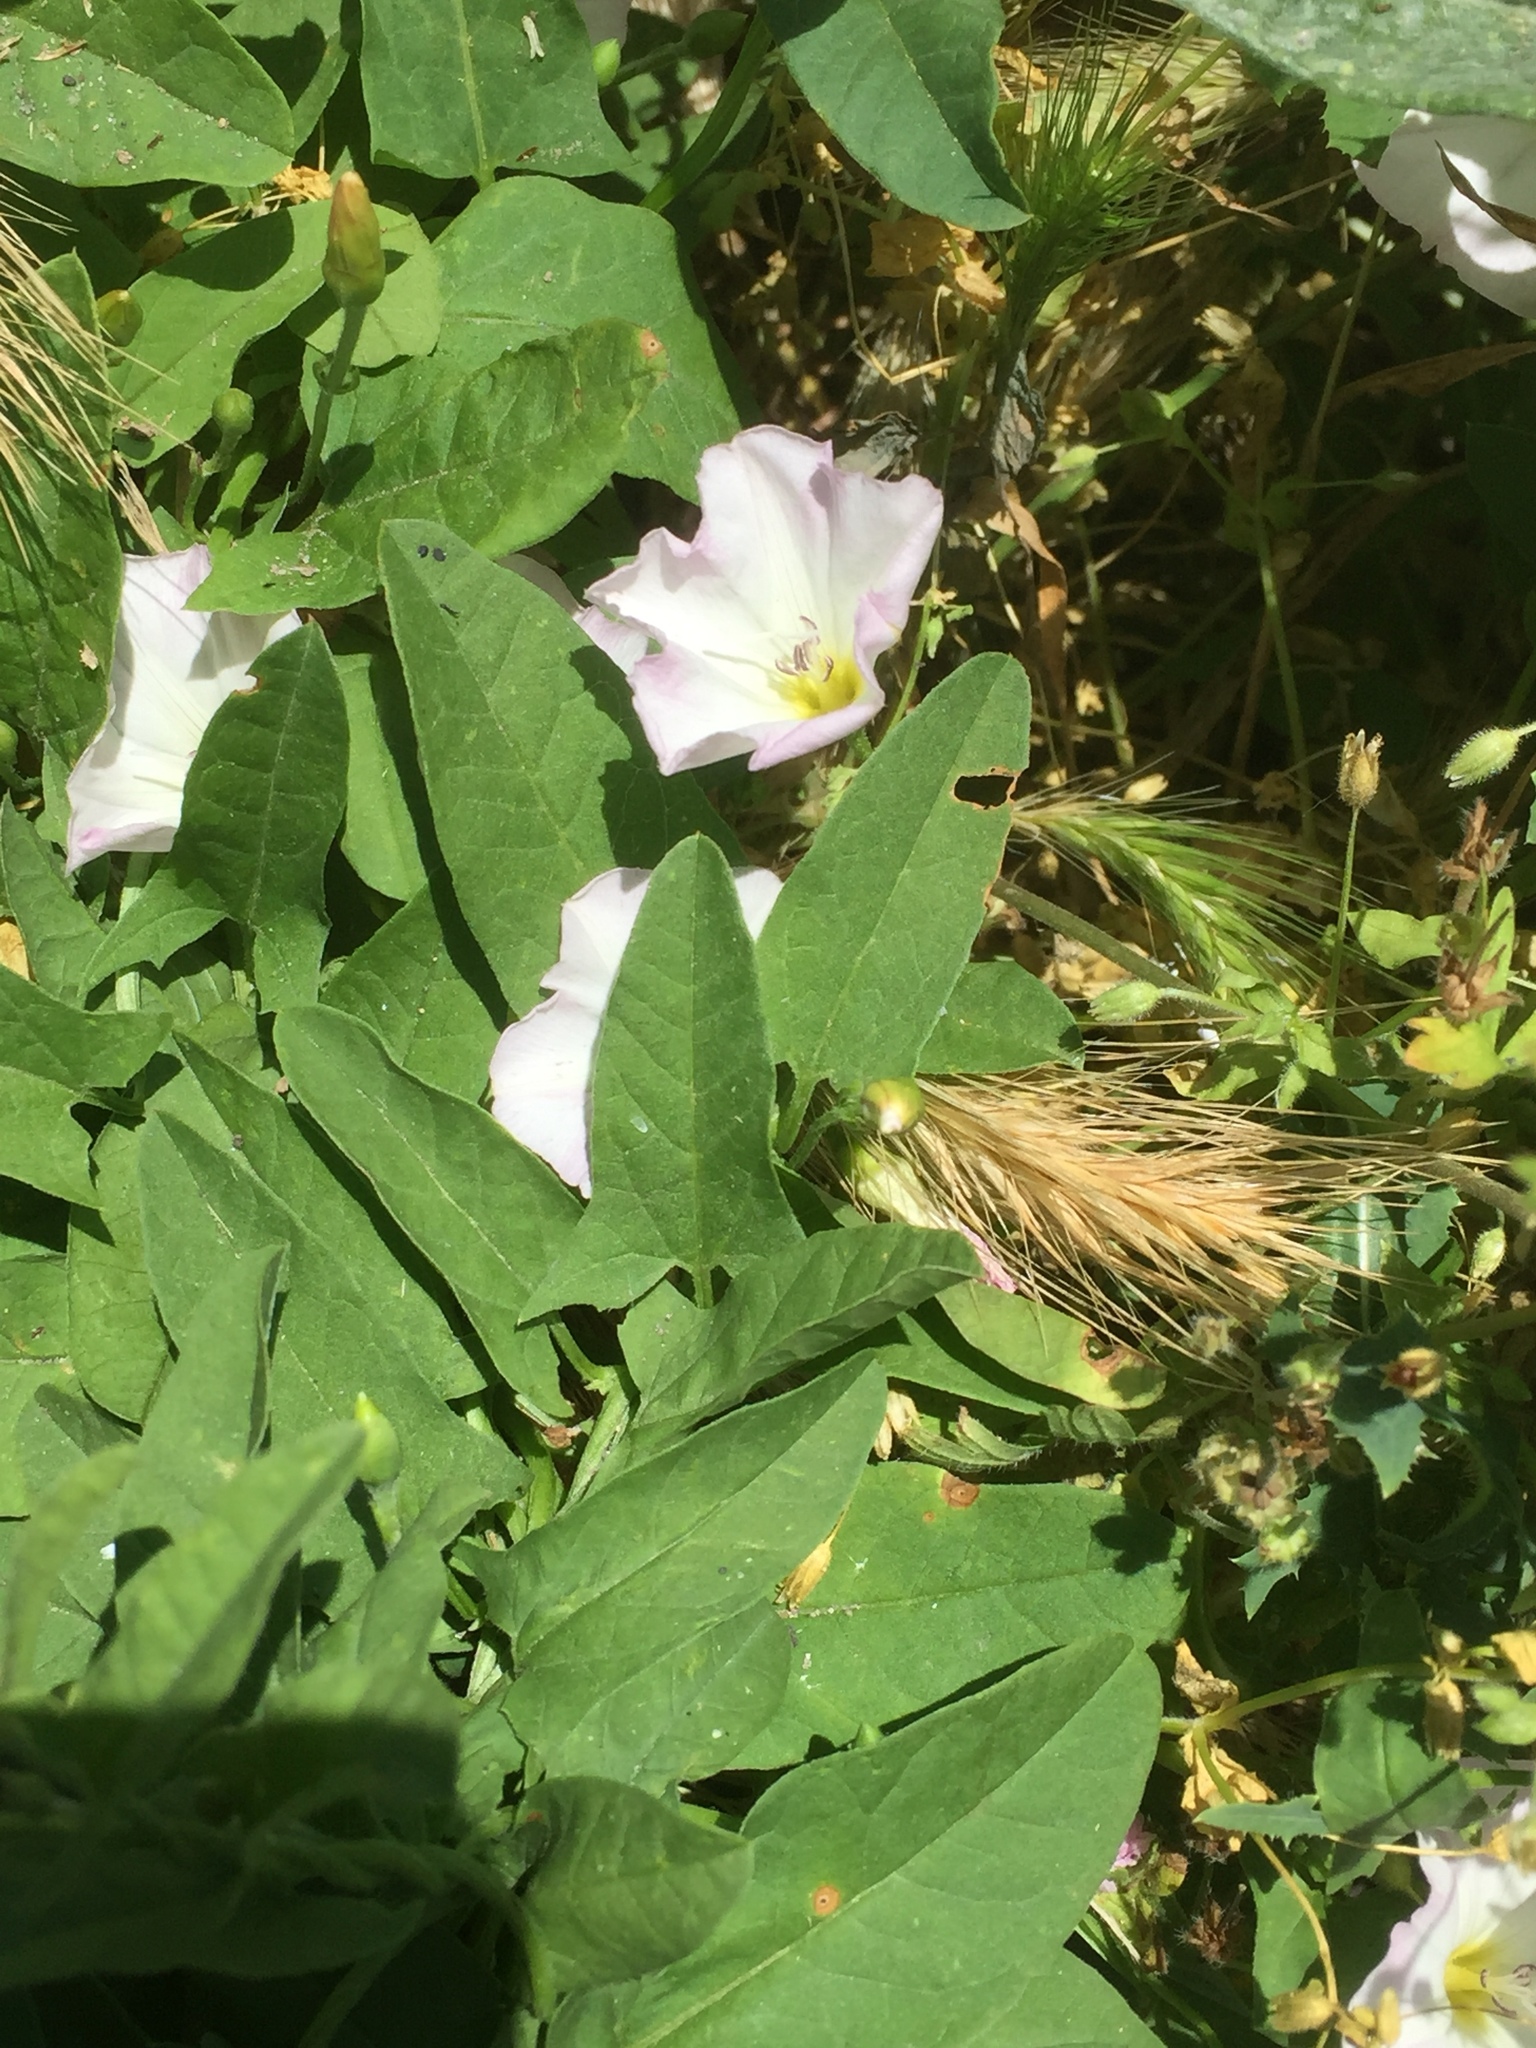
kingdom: Plantae
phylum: Tracheophyta
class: Magnoliopsida
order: Solanales
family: Convolvulaceae
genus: Convolvulus
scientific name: Convolvulus arvensis
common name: Field bindweed
